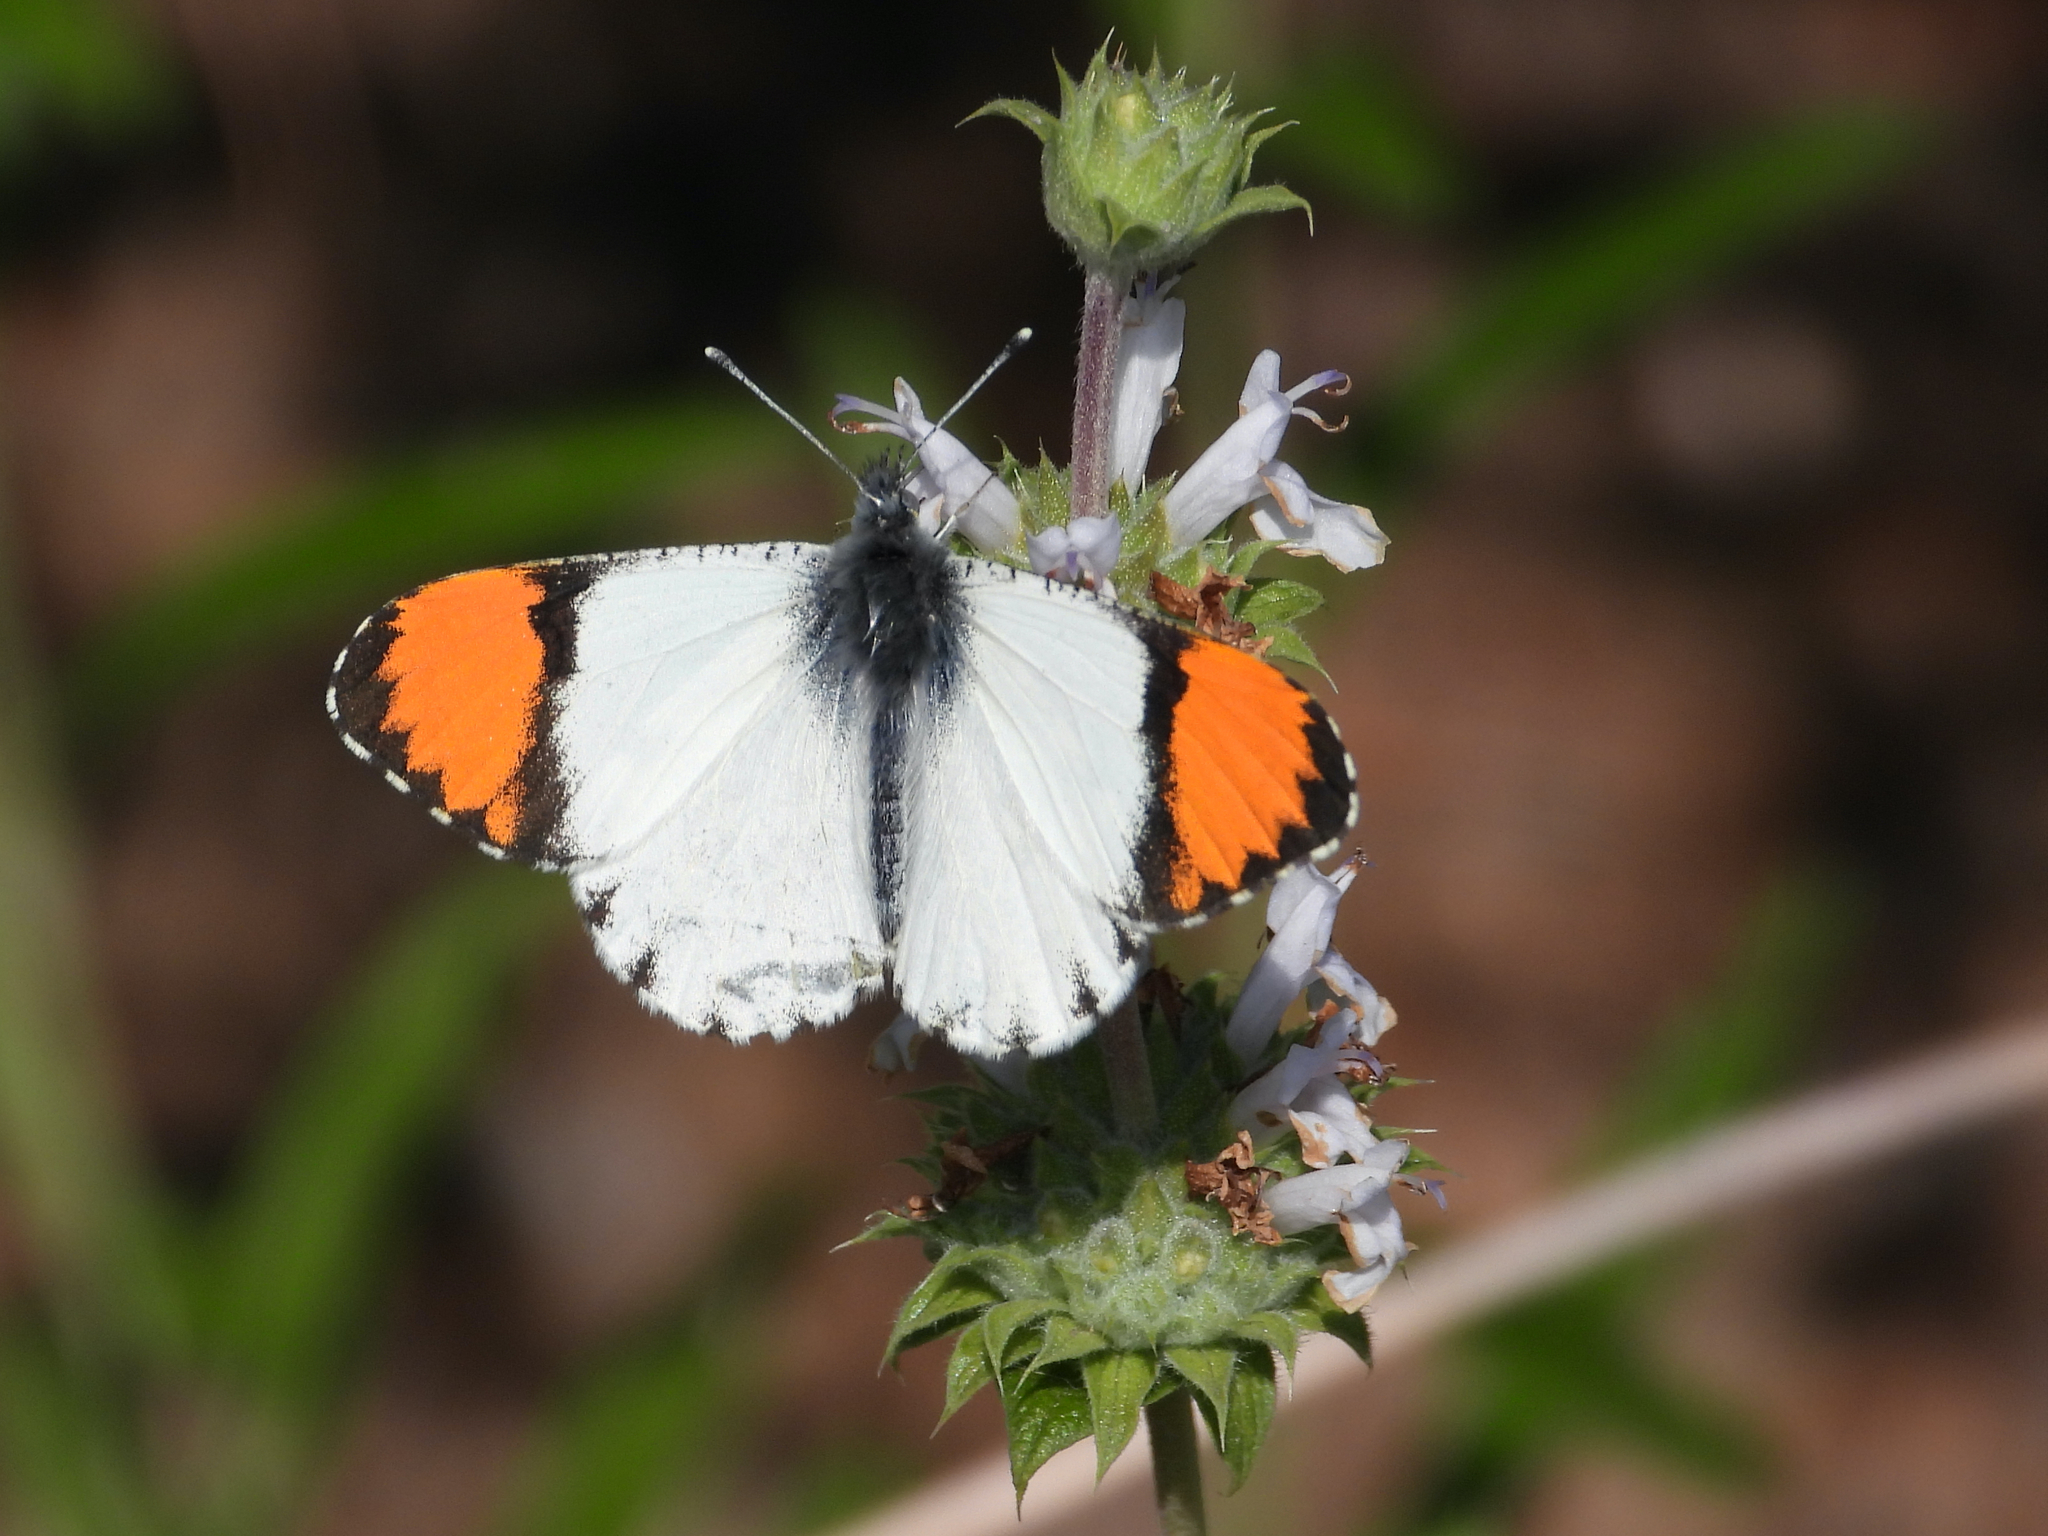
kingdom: Animalia
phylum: Arthropoda
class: Insecta
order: Lepidoptera
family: Pieridae
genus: Anthocharis
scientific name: Anthocharis sara
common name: Sara's orangetip
